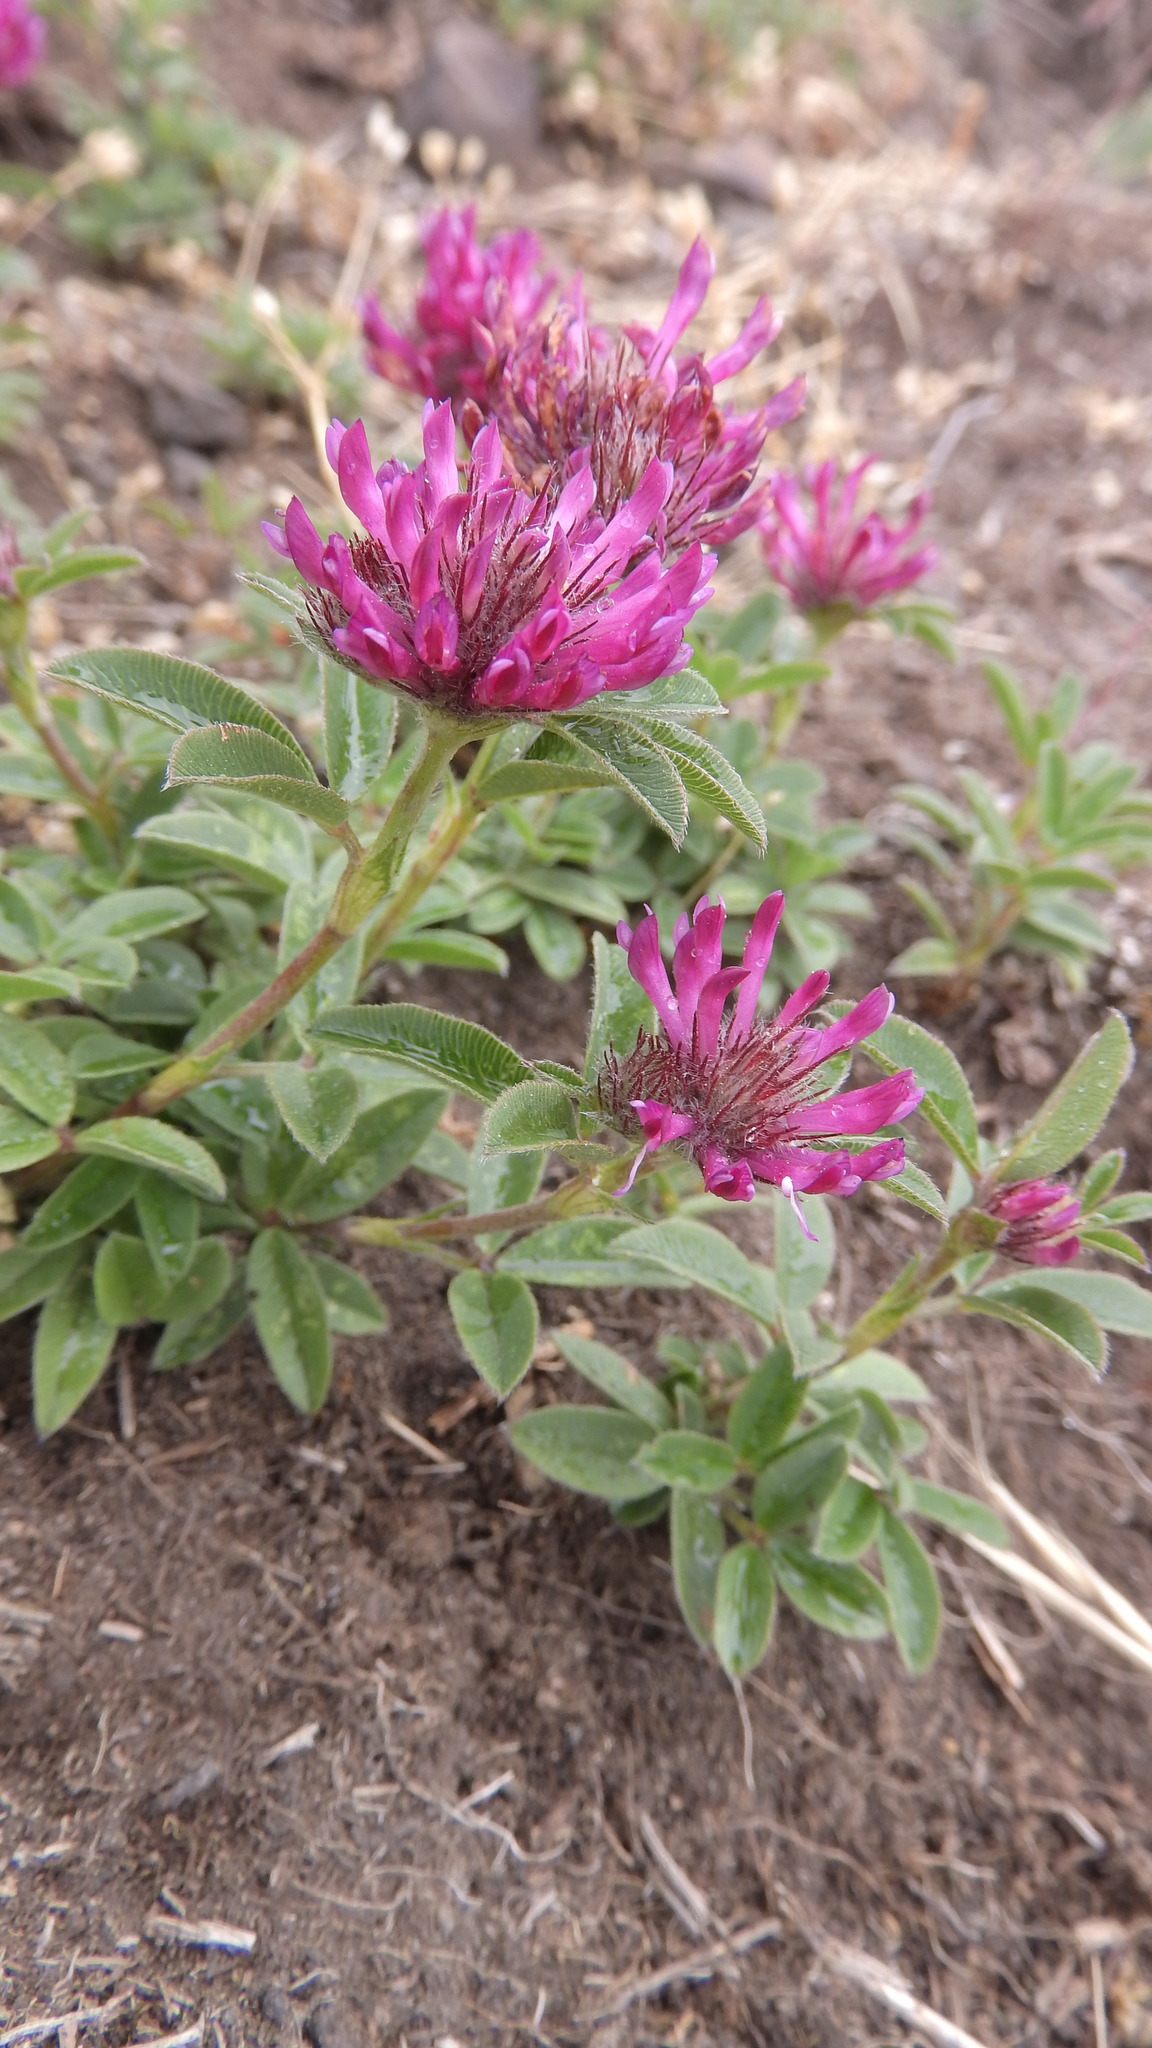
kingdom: Plantae
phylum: Tracheophyta
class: Magnoliopsida
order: Fabales
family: Fabaceae
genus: Trifolium
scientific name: Trifolium alpestre
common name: Owl-head clover
